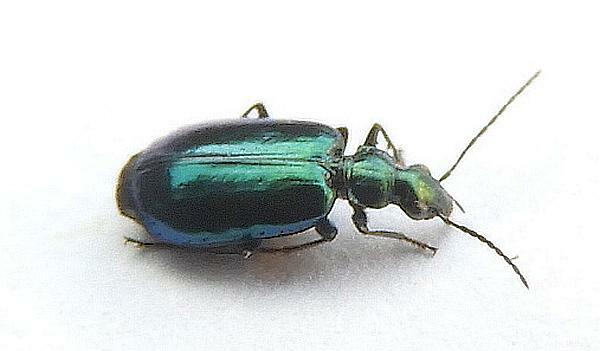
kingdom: Animalia
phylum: Arthropoda
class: Insecta
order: Coleoptera
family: Carabidae
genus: Lebia
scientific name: Lebia viridis
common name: Flower lebia beetle
